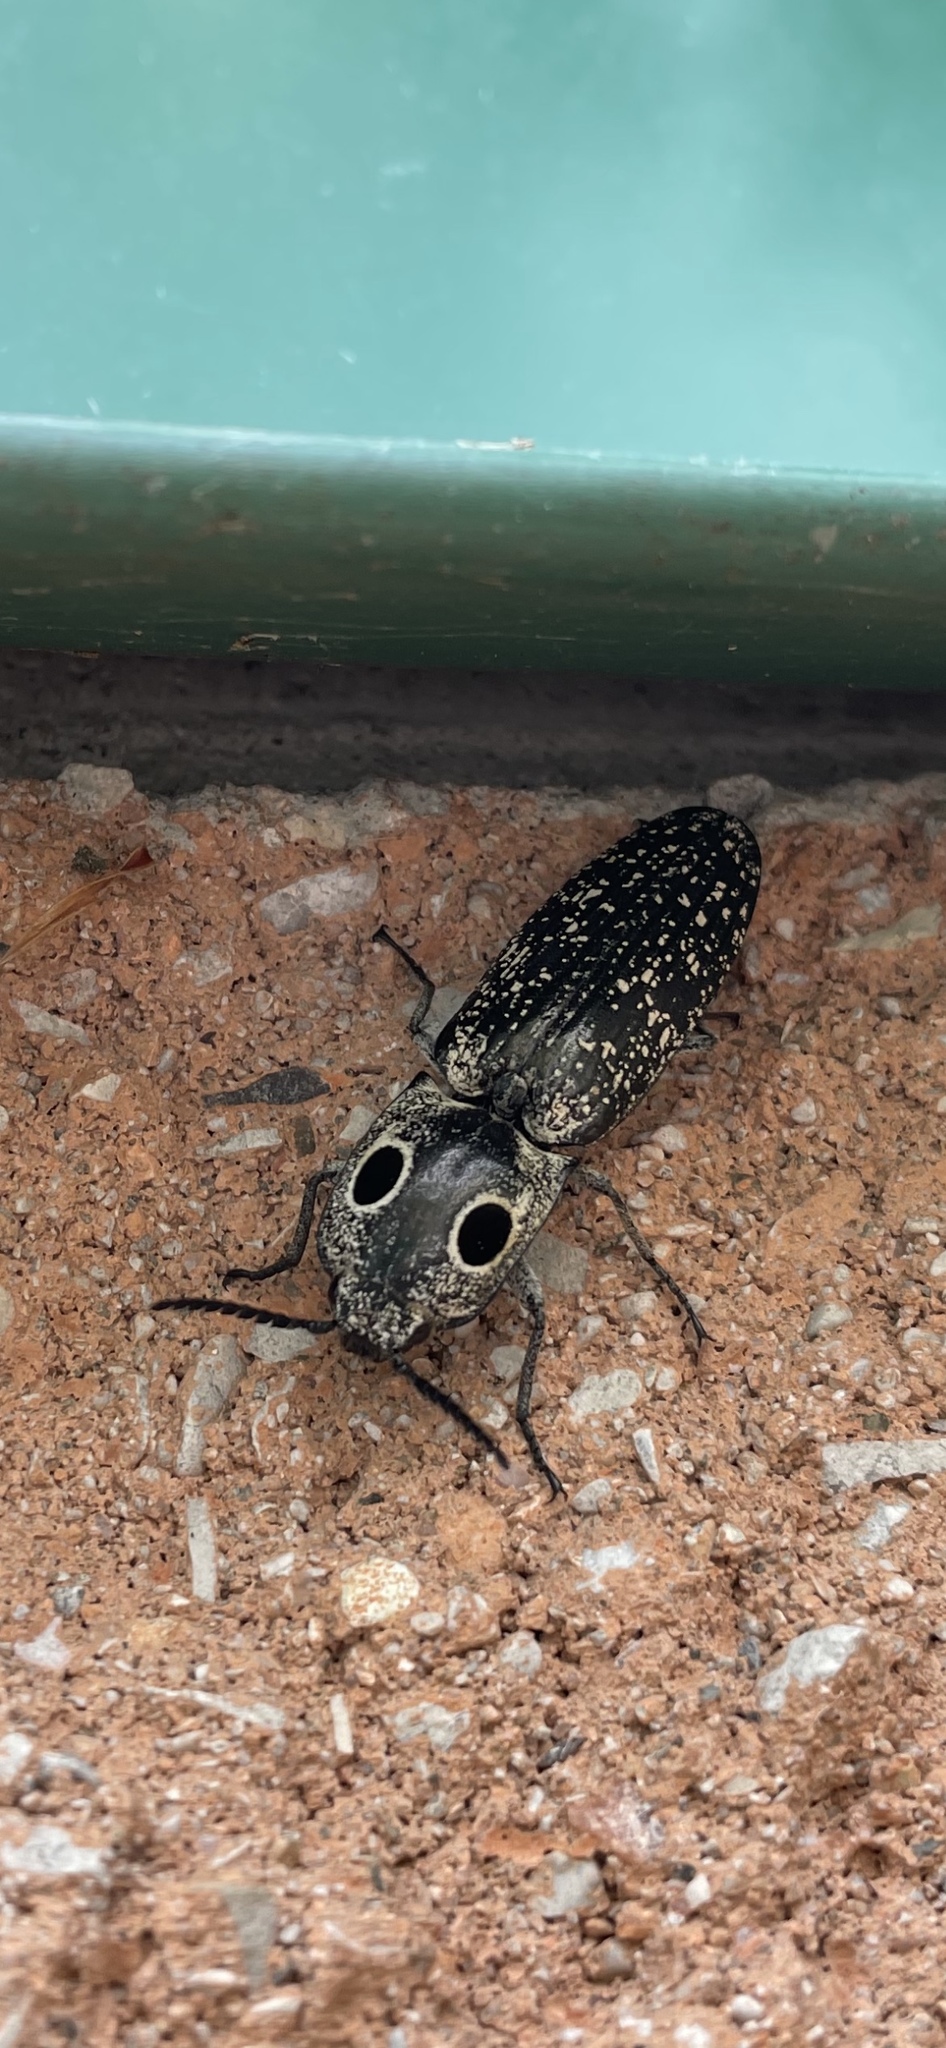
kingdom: Animalia
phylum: Arthropoda
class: Insecta
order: Coleoptera
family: Elateridae
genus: Alaus
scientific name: Alaus oculatus
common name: Eastern eyed click beetle
